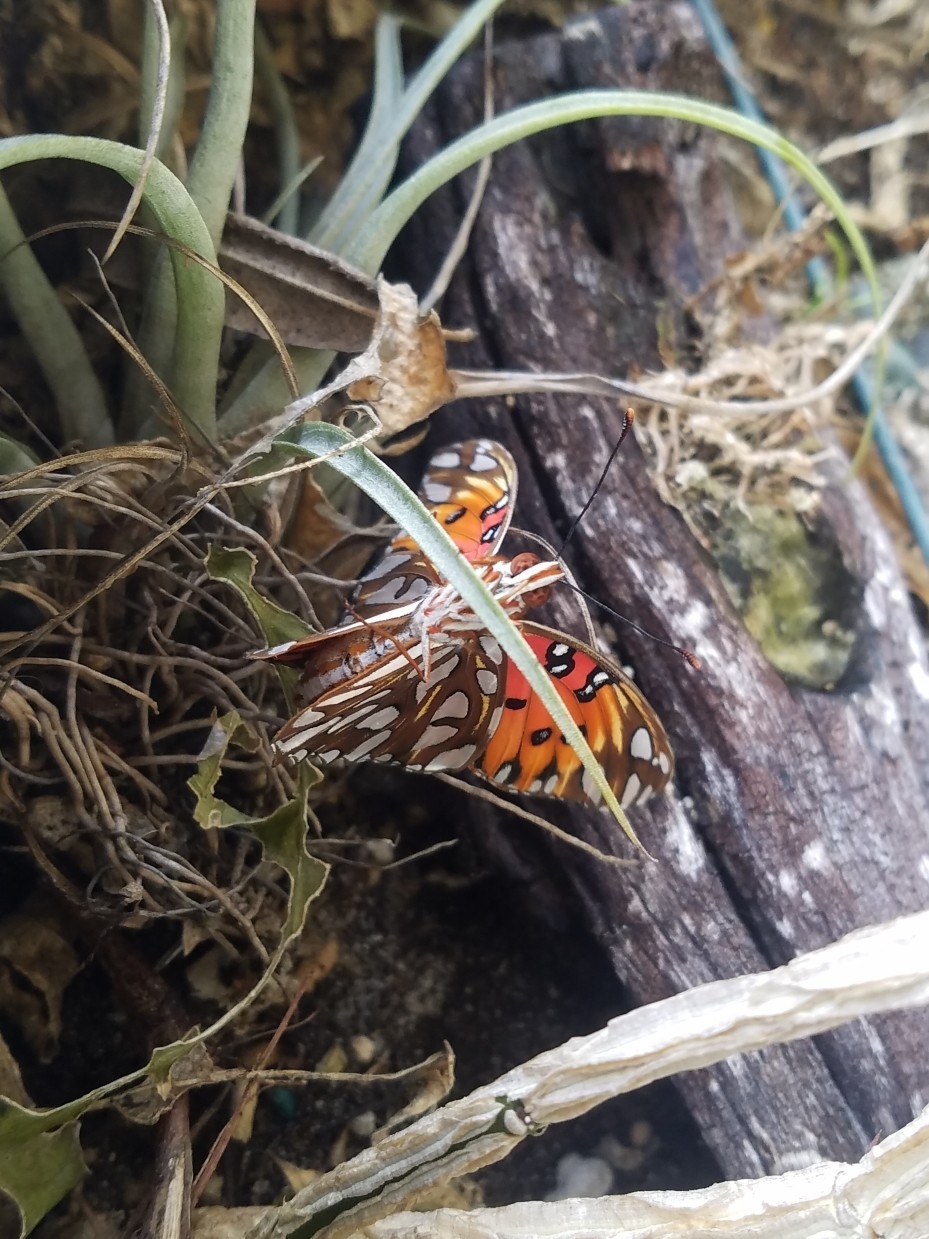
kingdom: Animalia
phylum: Arthropoda
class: Insecta
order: Lepidoptera
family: Nymphalidae
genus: Dione
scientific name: Dione vanillae
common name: Gulf fritillary
